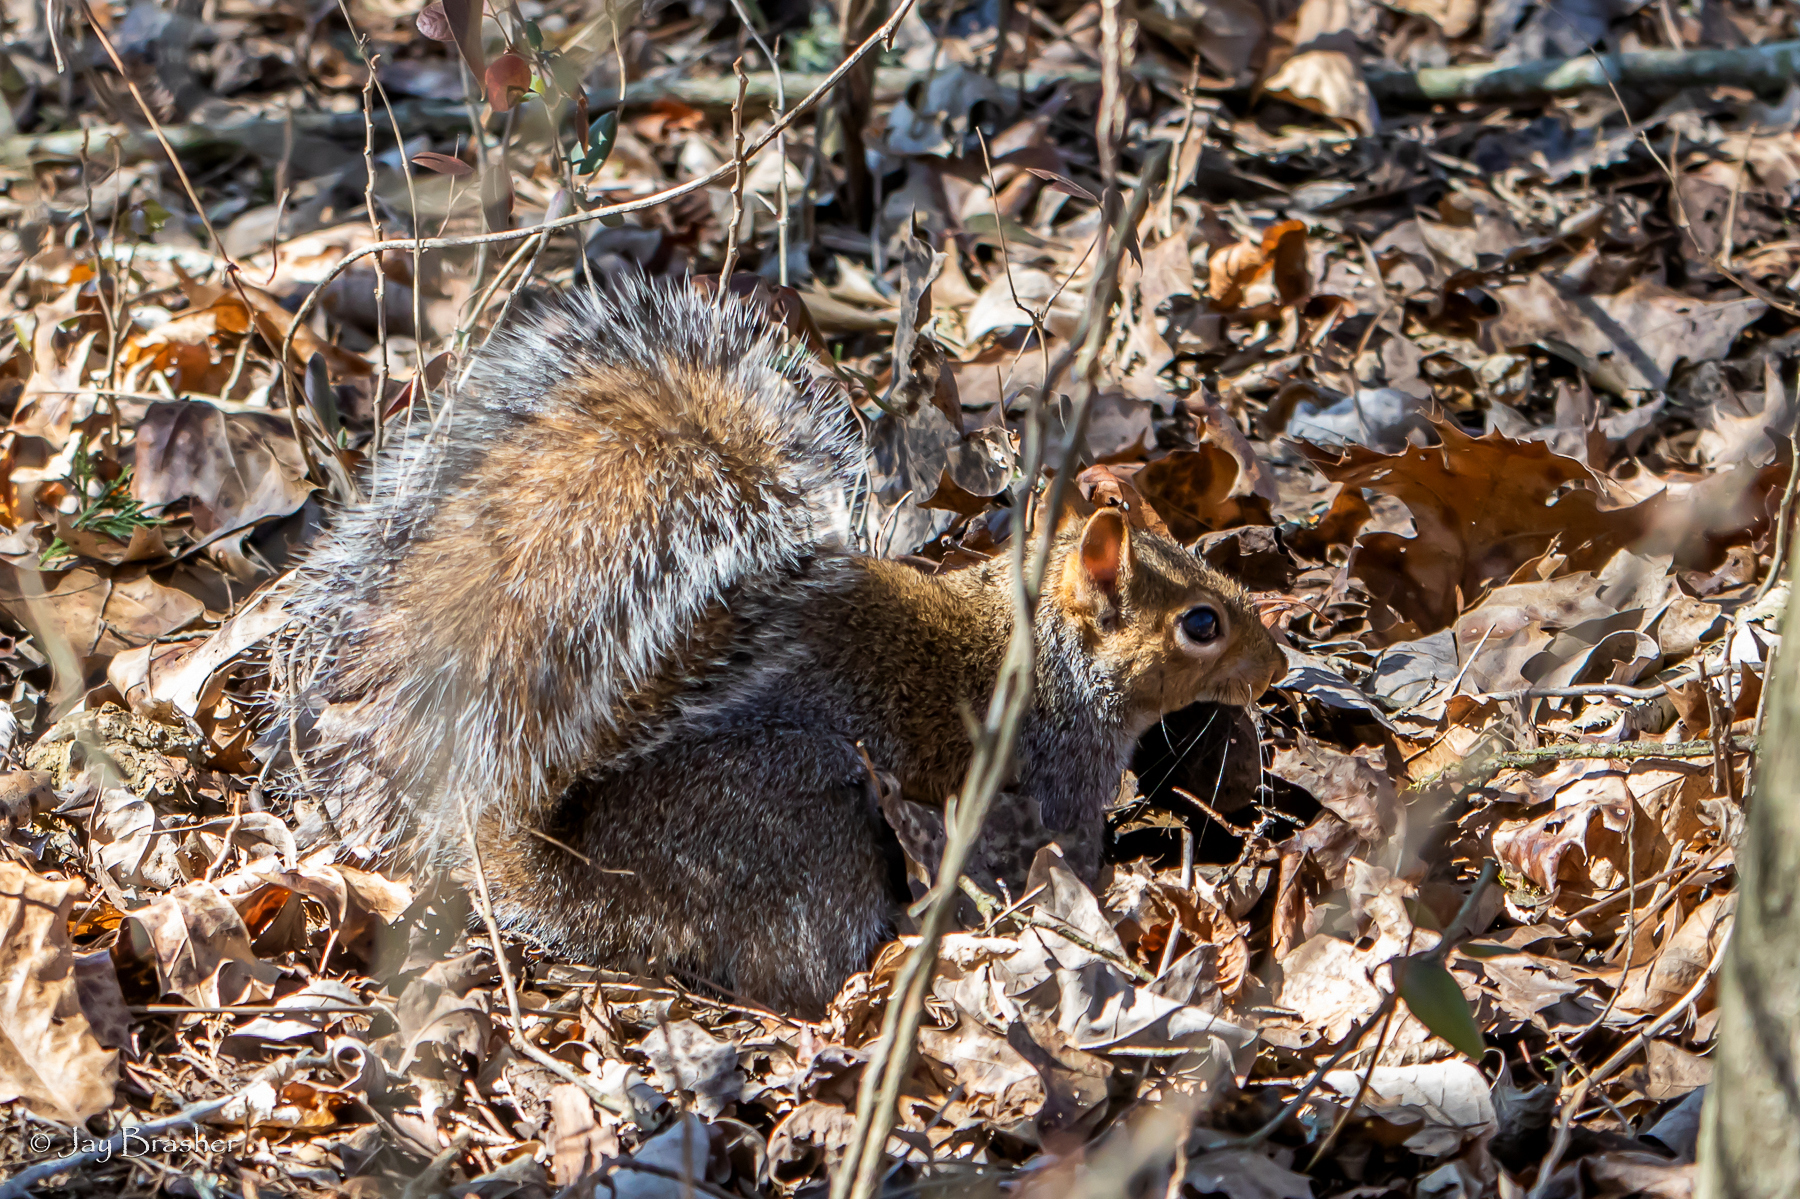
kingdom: Animalia
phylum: Chordata
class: Mammalia
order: Rodentia
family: Sciuridae
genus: Sciurus
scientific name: Sciurus carolinensis
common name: Eastern gray squirrel
